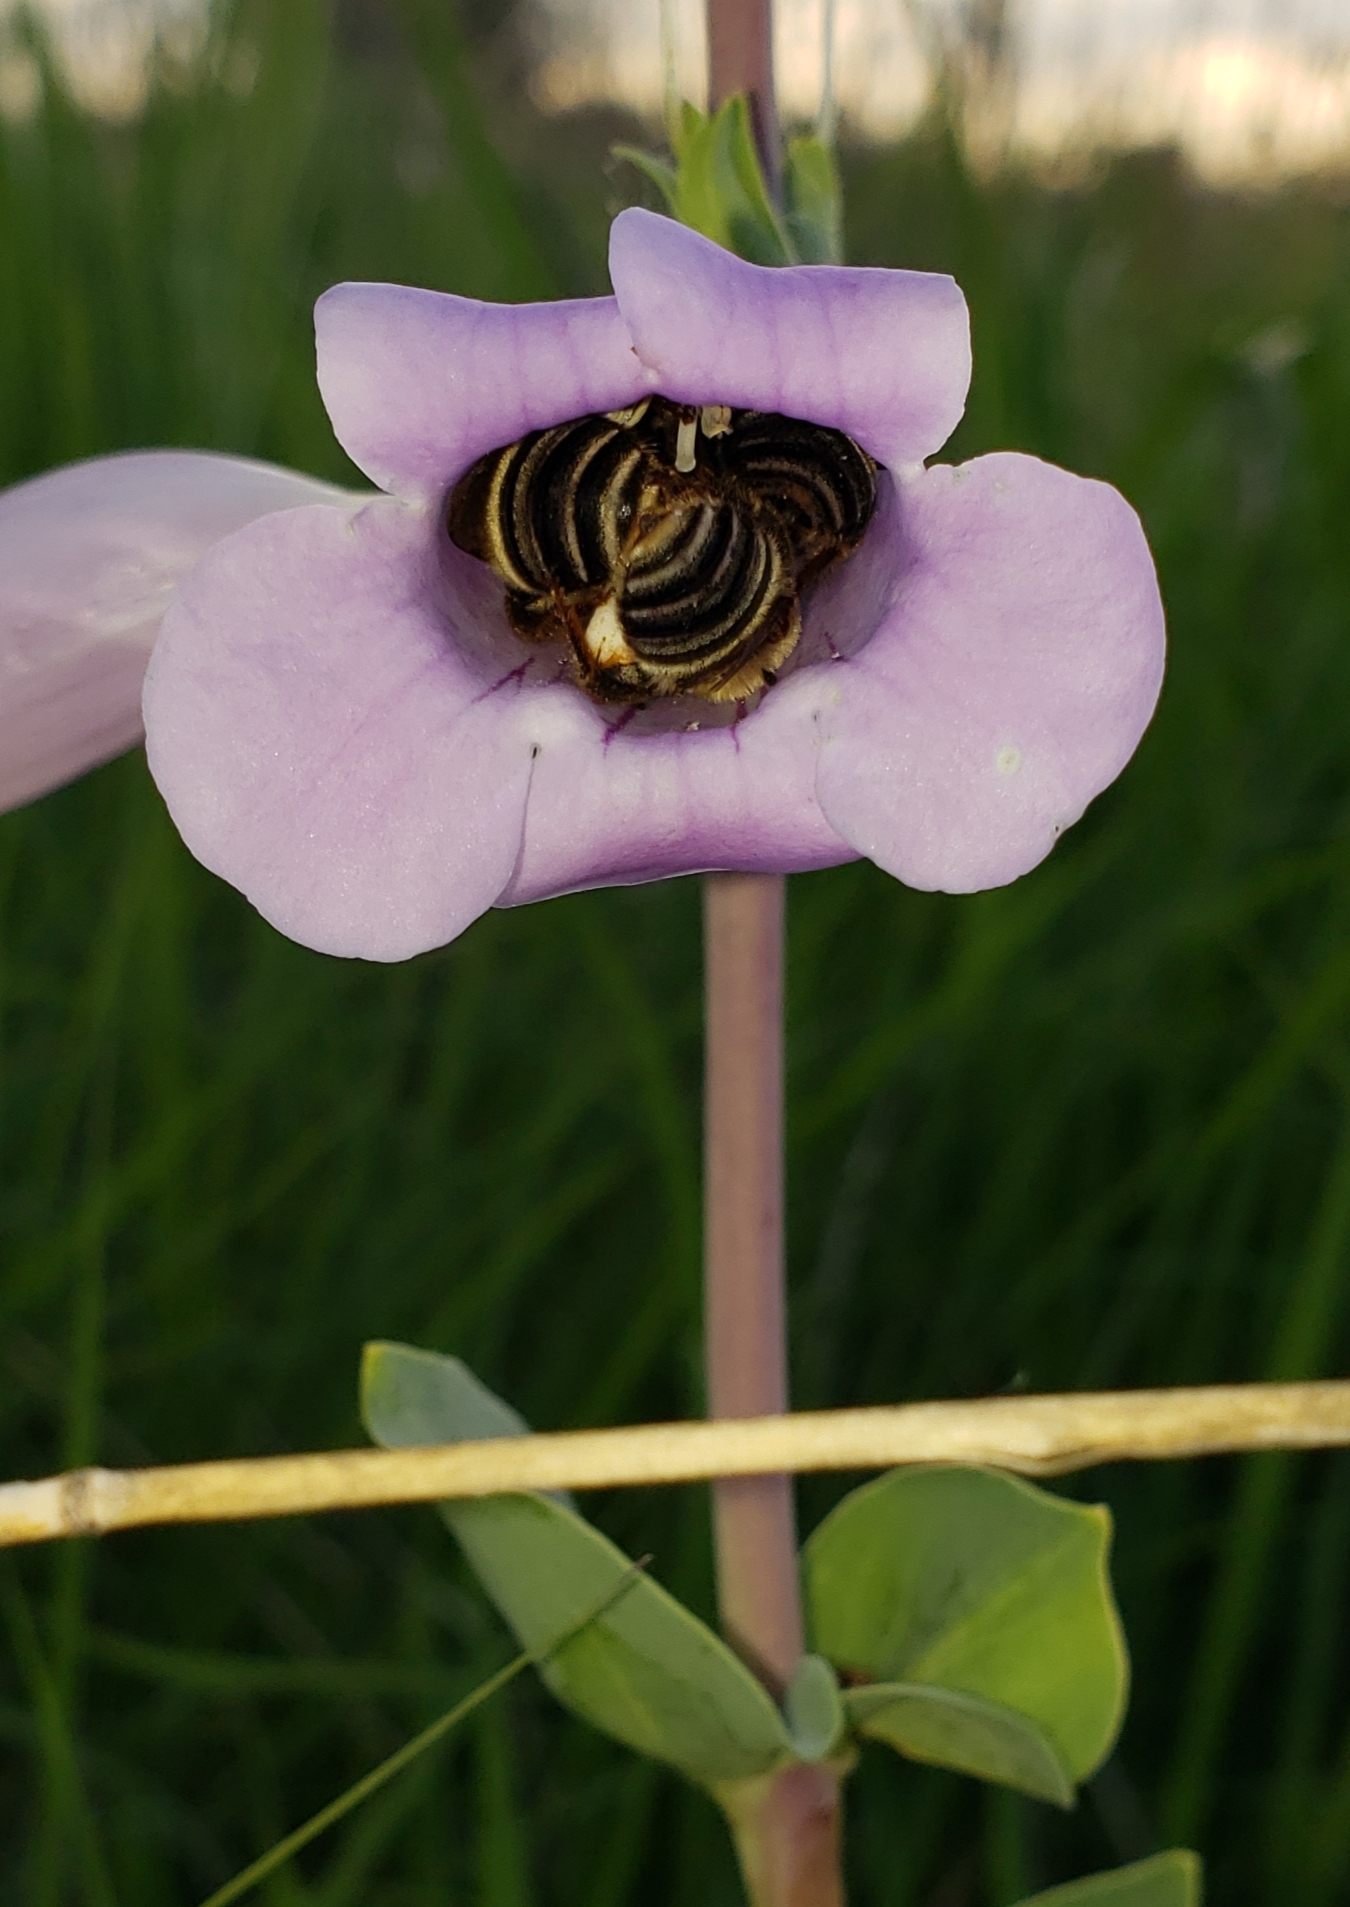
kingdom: Plantae
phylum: Tracheophyta
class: Magnoliopsida
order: Lamiales
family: Plantaginaceae
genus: Penstemon
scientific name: Penstemon
